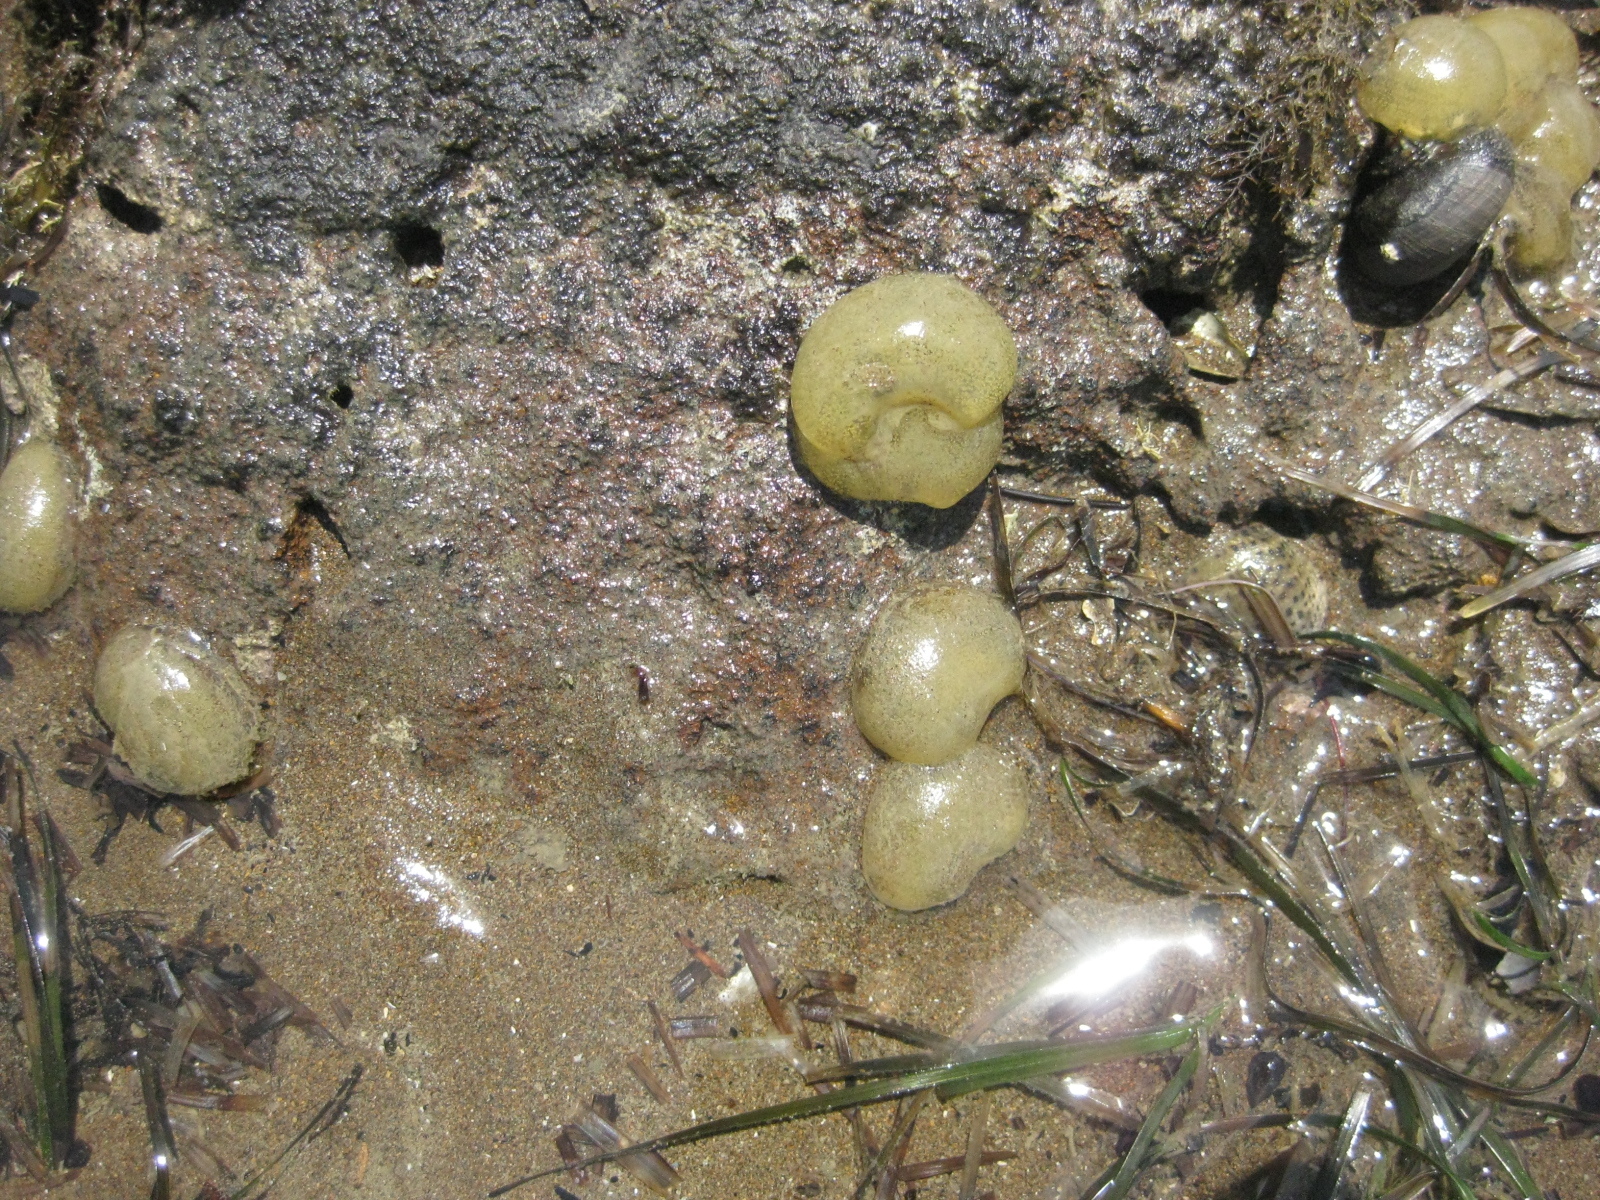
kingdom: Animalia
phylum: Mollusca
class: Gastropoda
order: Cephalaspidea
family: Haminoeidae
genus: Papawera
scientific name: Papawera zelandiae
